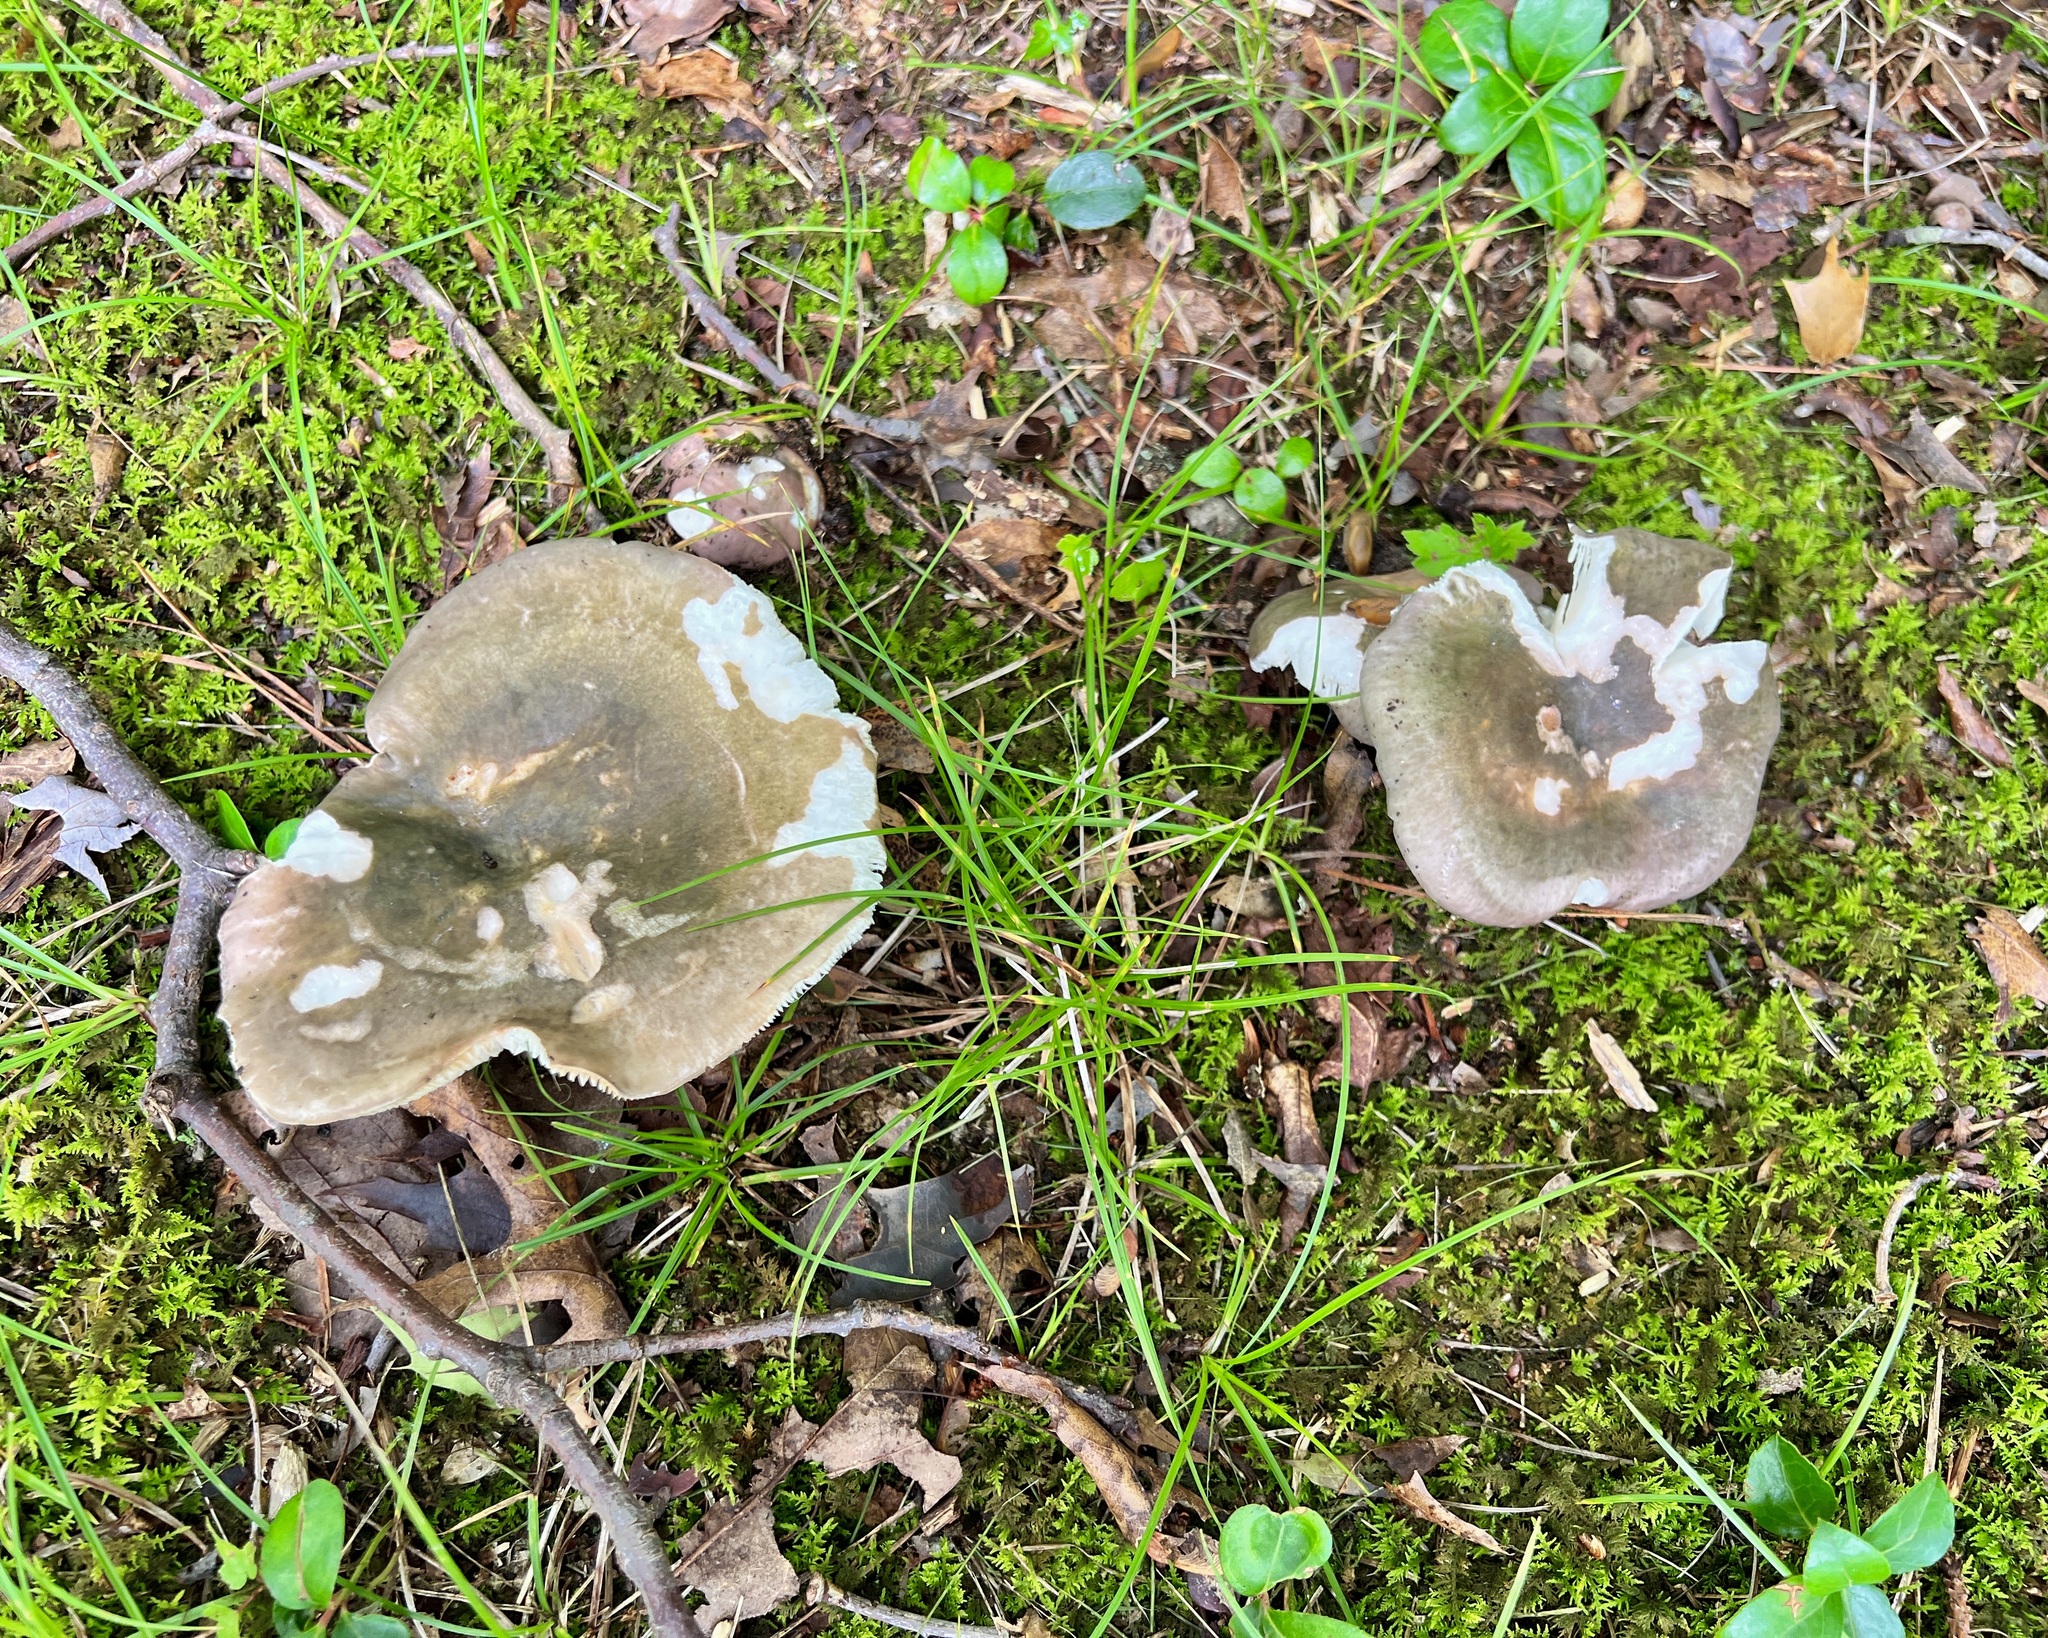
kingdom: Fungi
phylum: Basidiomycota
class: Agaricomycetes
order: Russulales
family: Russulaceae
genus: Russula
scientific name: Russula cyanoxantha
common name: Charcoal burner
